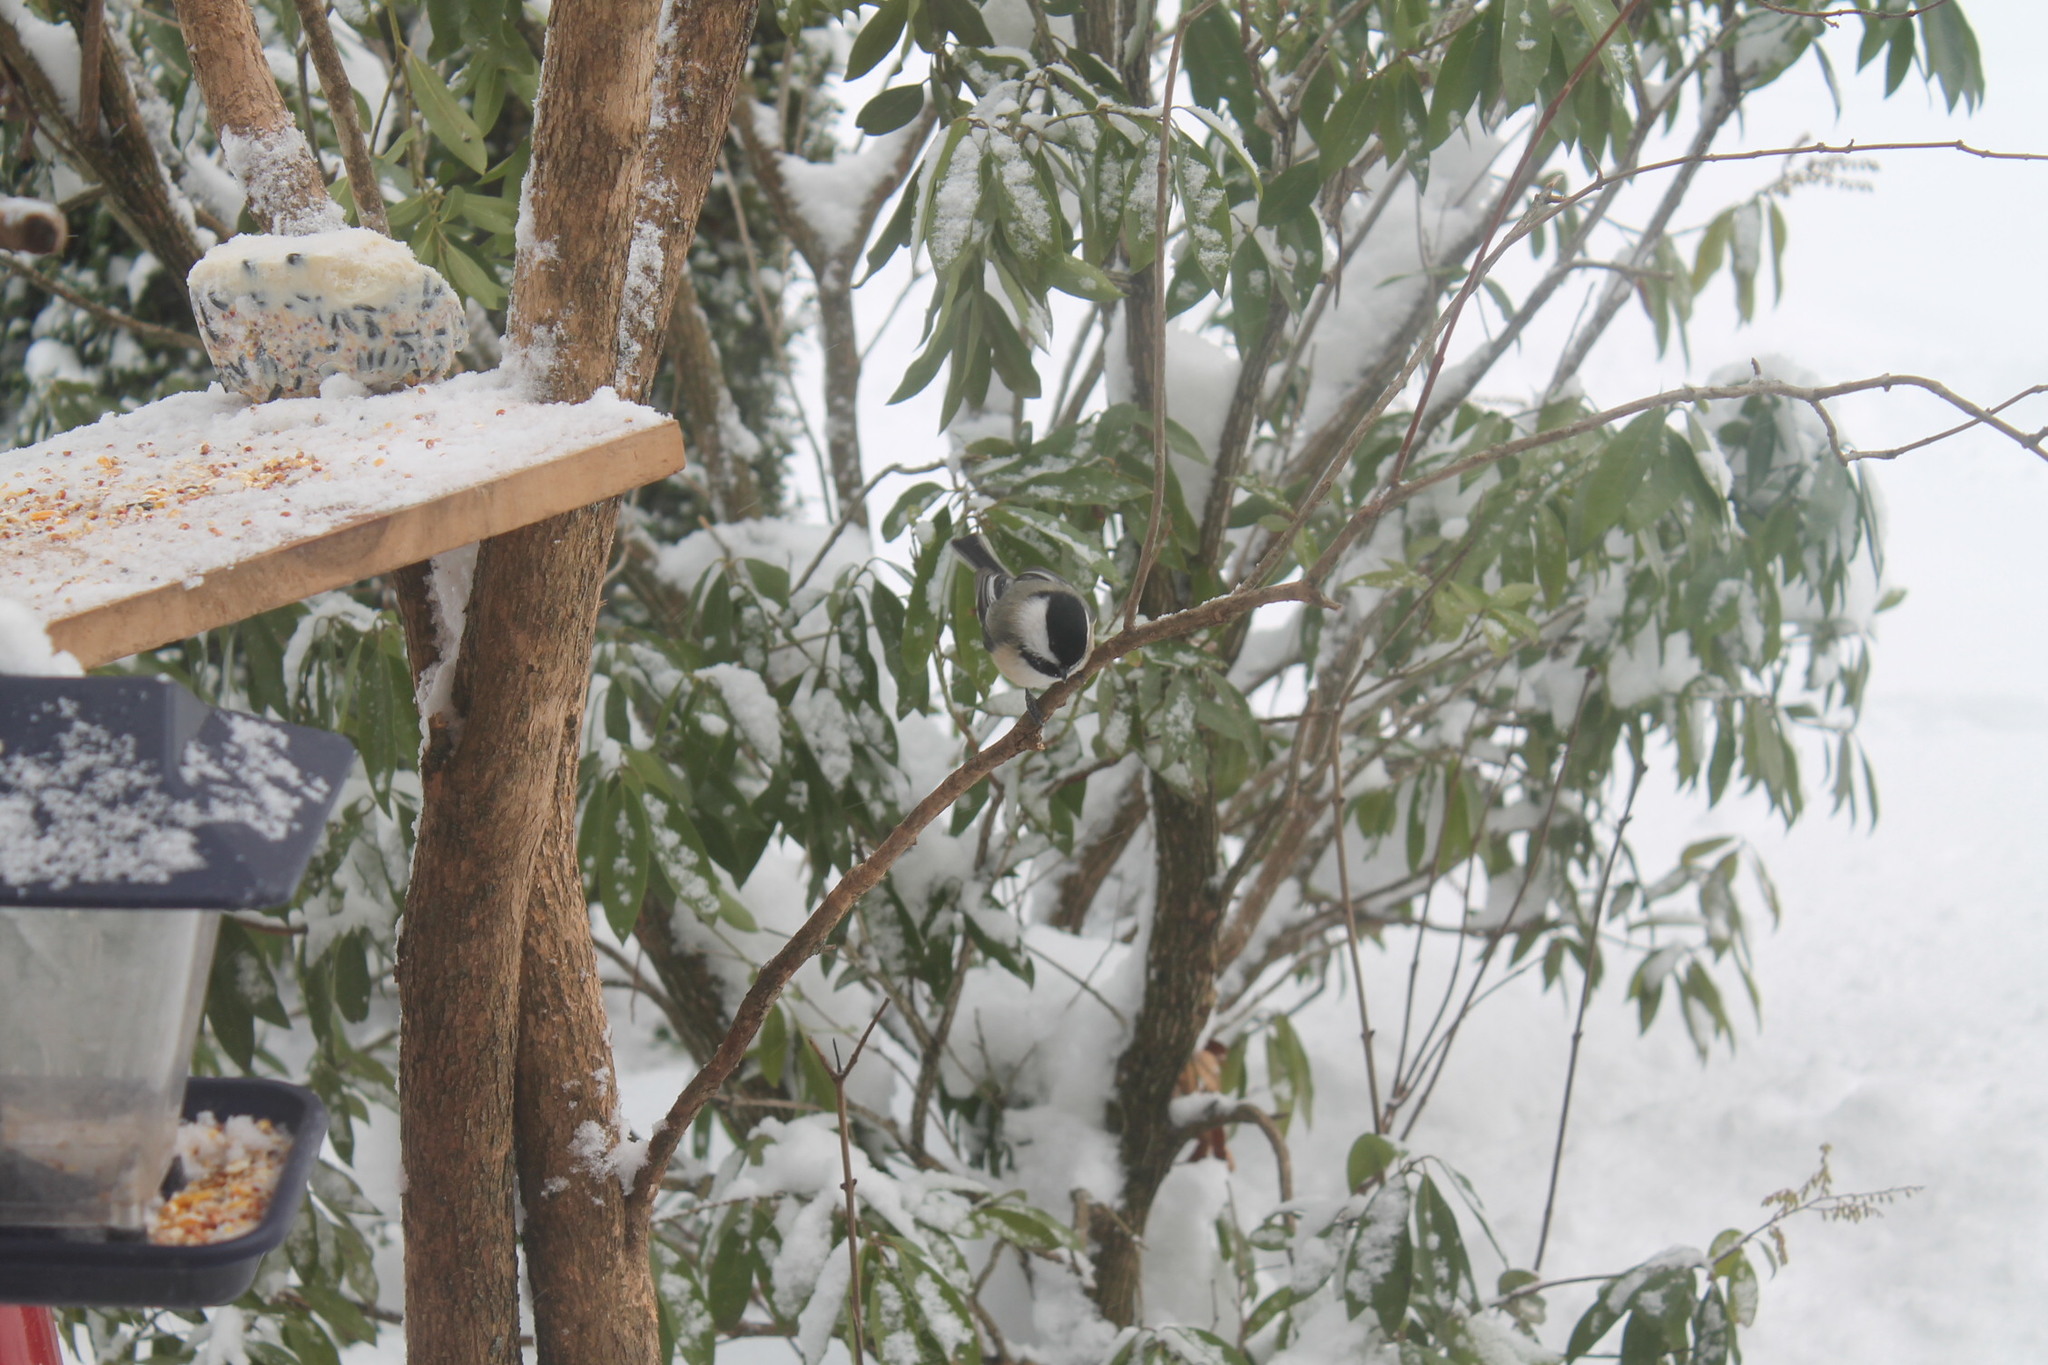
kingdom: Animalia
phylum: Chordata
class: Aves
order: Passeriformes
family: Paridae
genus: Poecile
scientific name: Poecile atricapillus
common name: Black-capped chickadee
